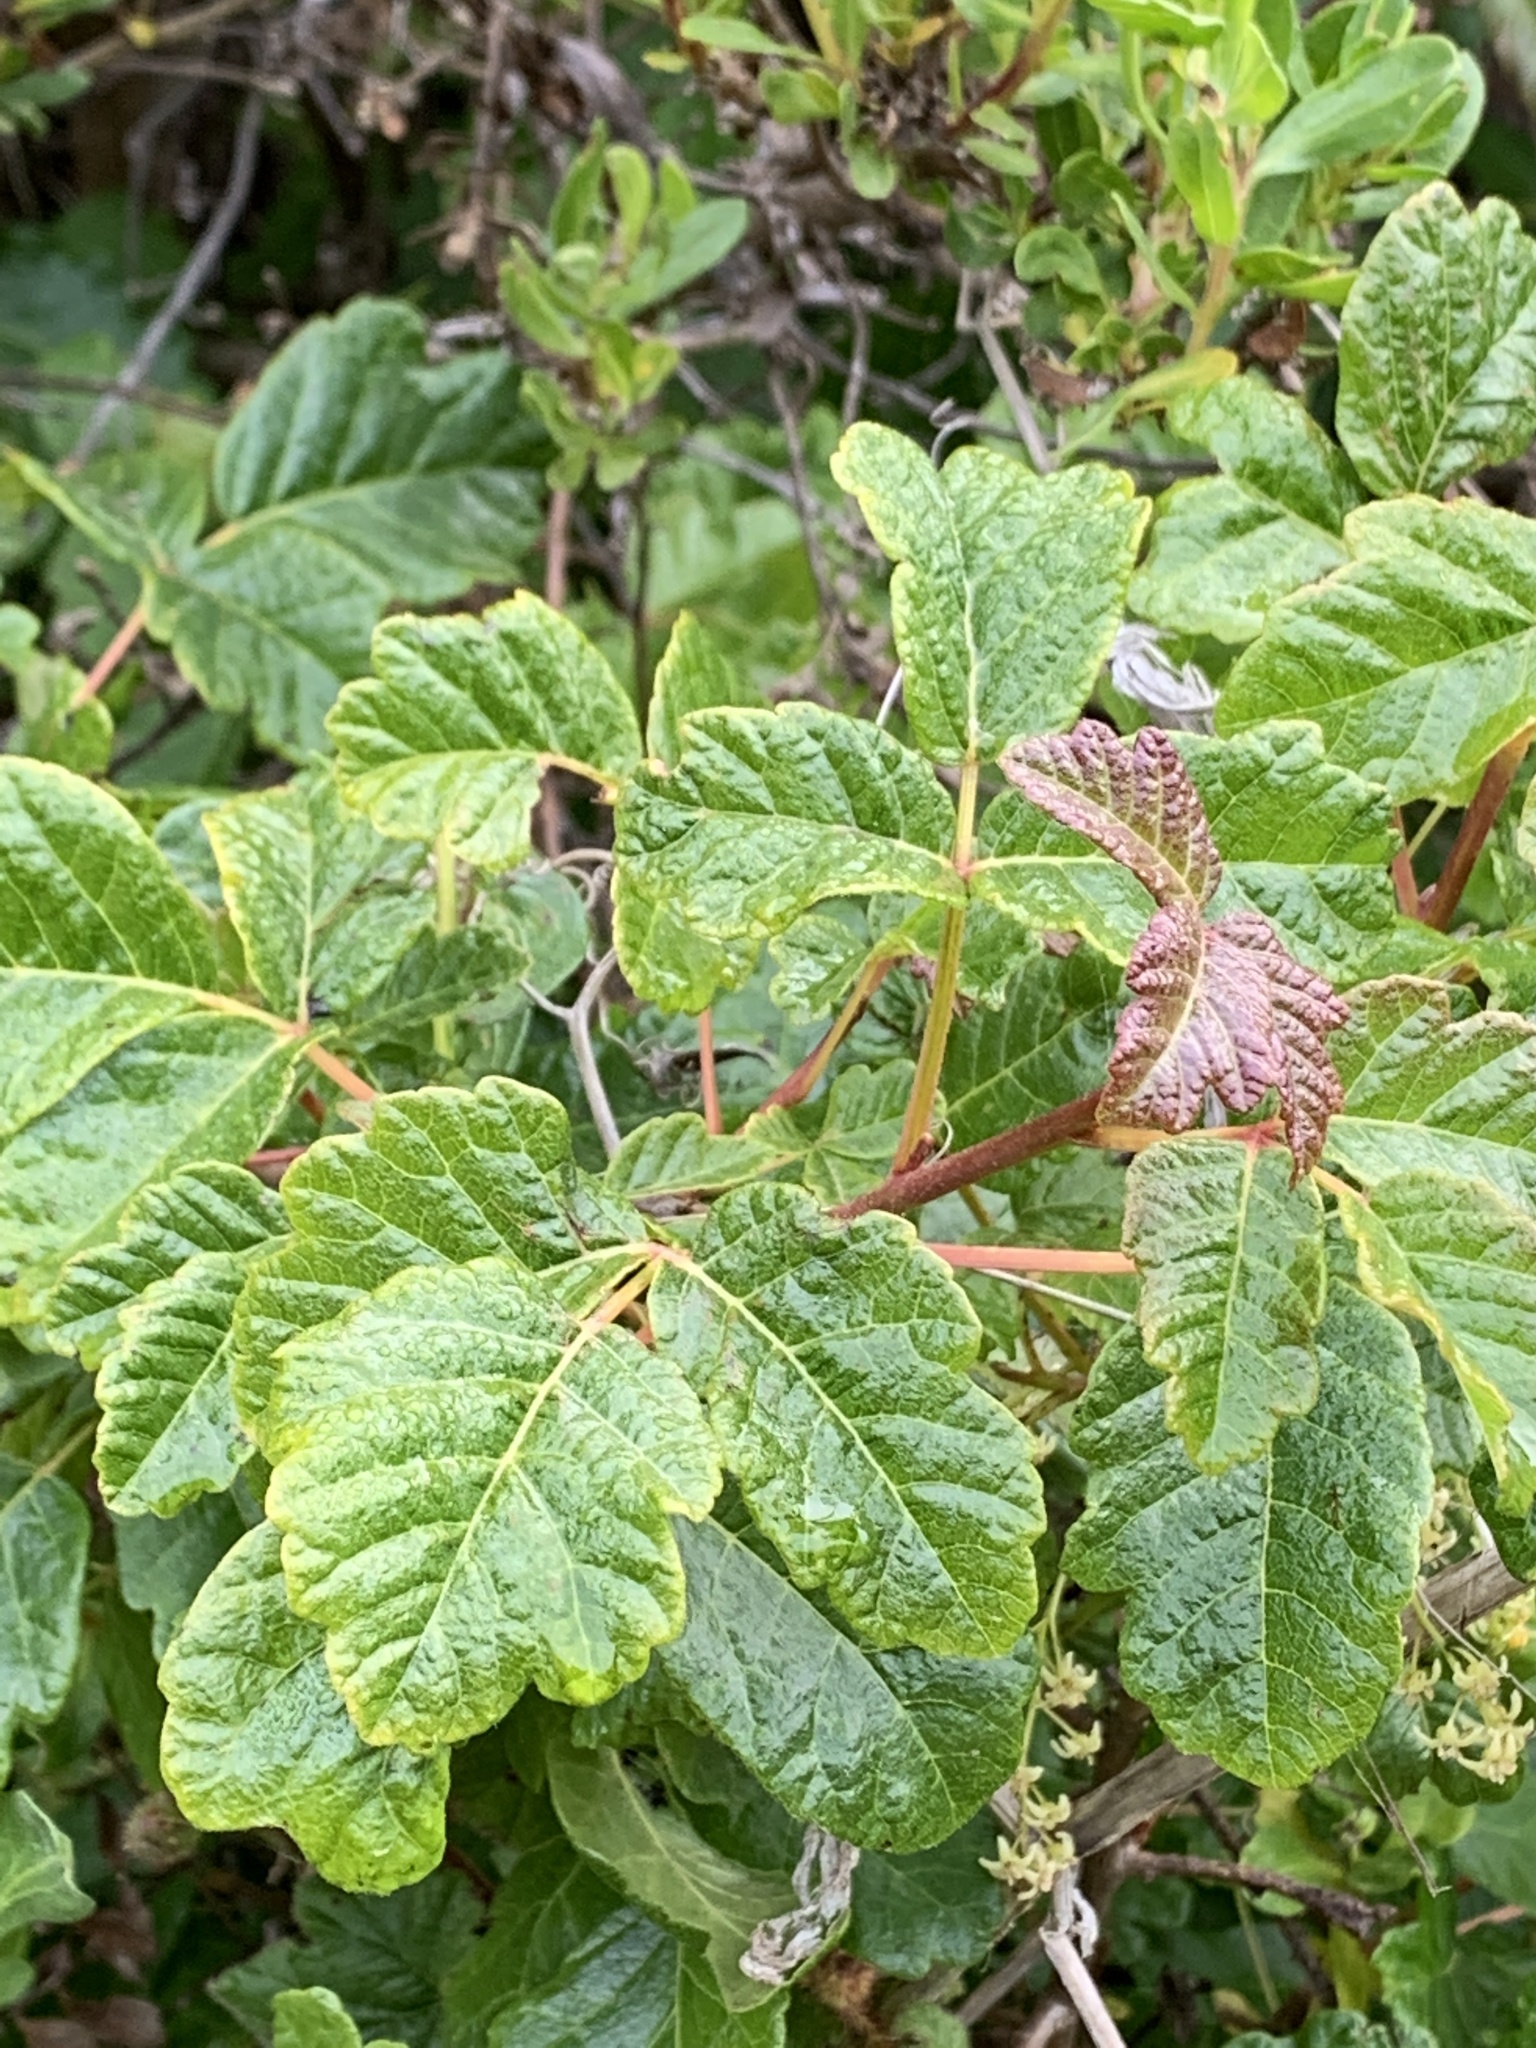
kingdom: Plantae
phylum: Tracheophyta
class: Magnoliopsida
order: Sapindales
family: Anacardiaceae
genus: Toxicodendron
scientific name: Toxicodendron diversilobum
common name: Pacific poison-oak
